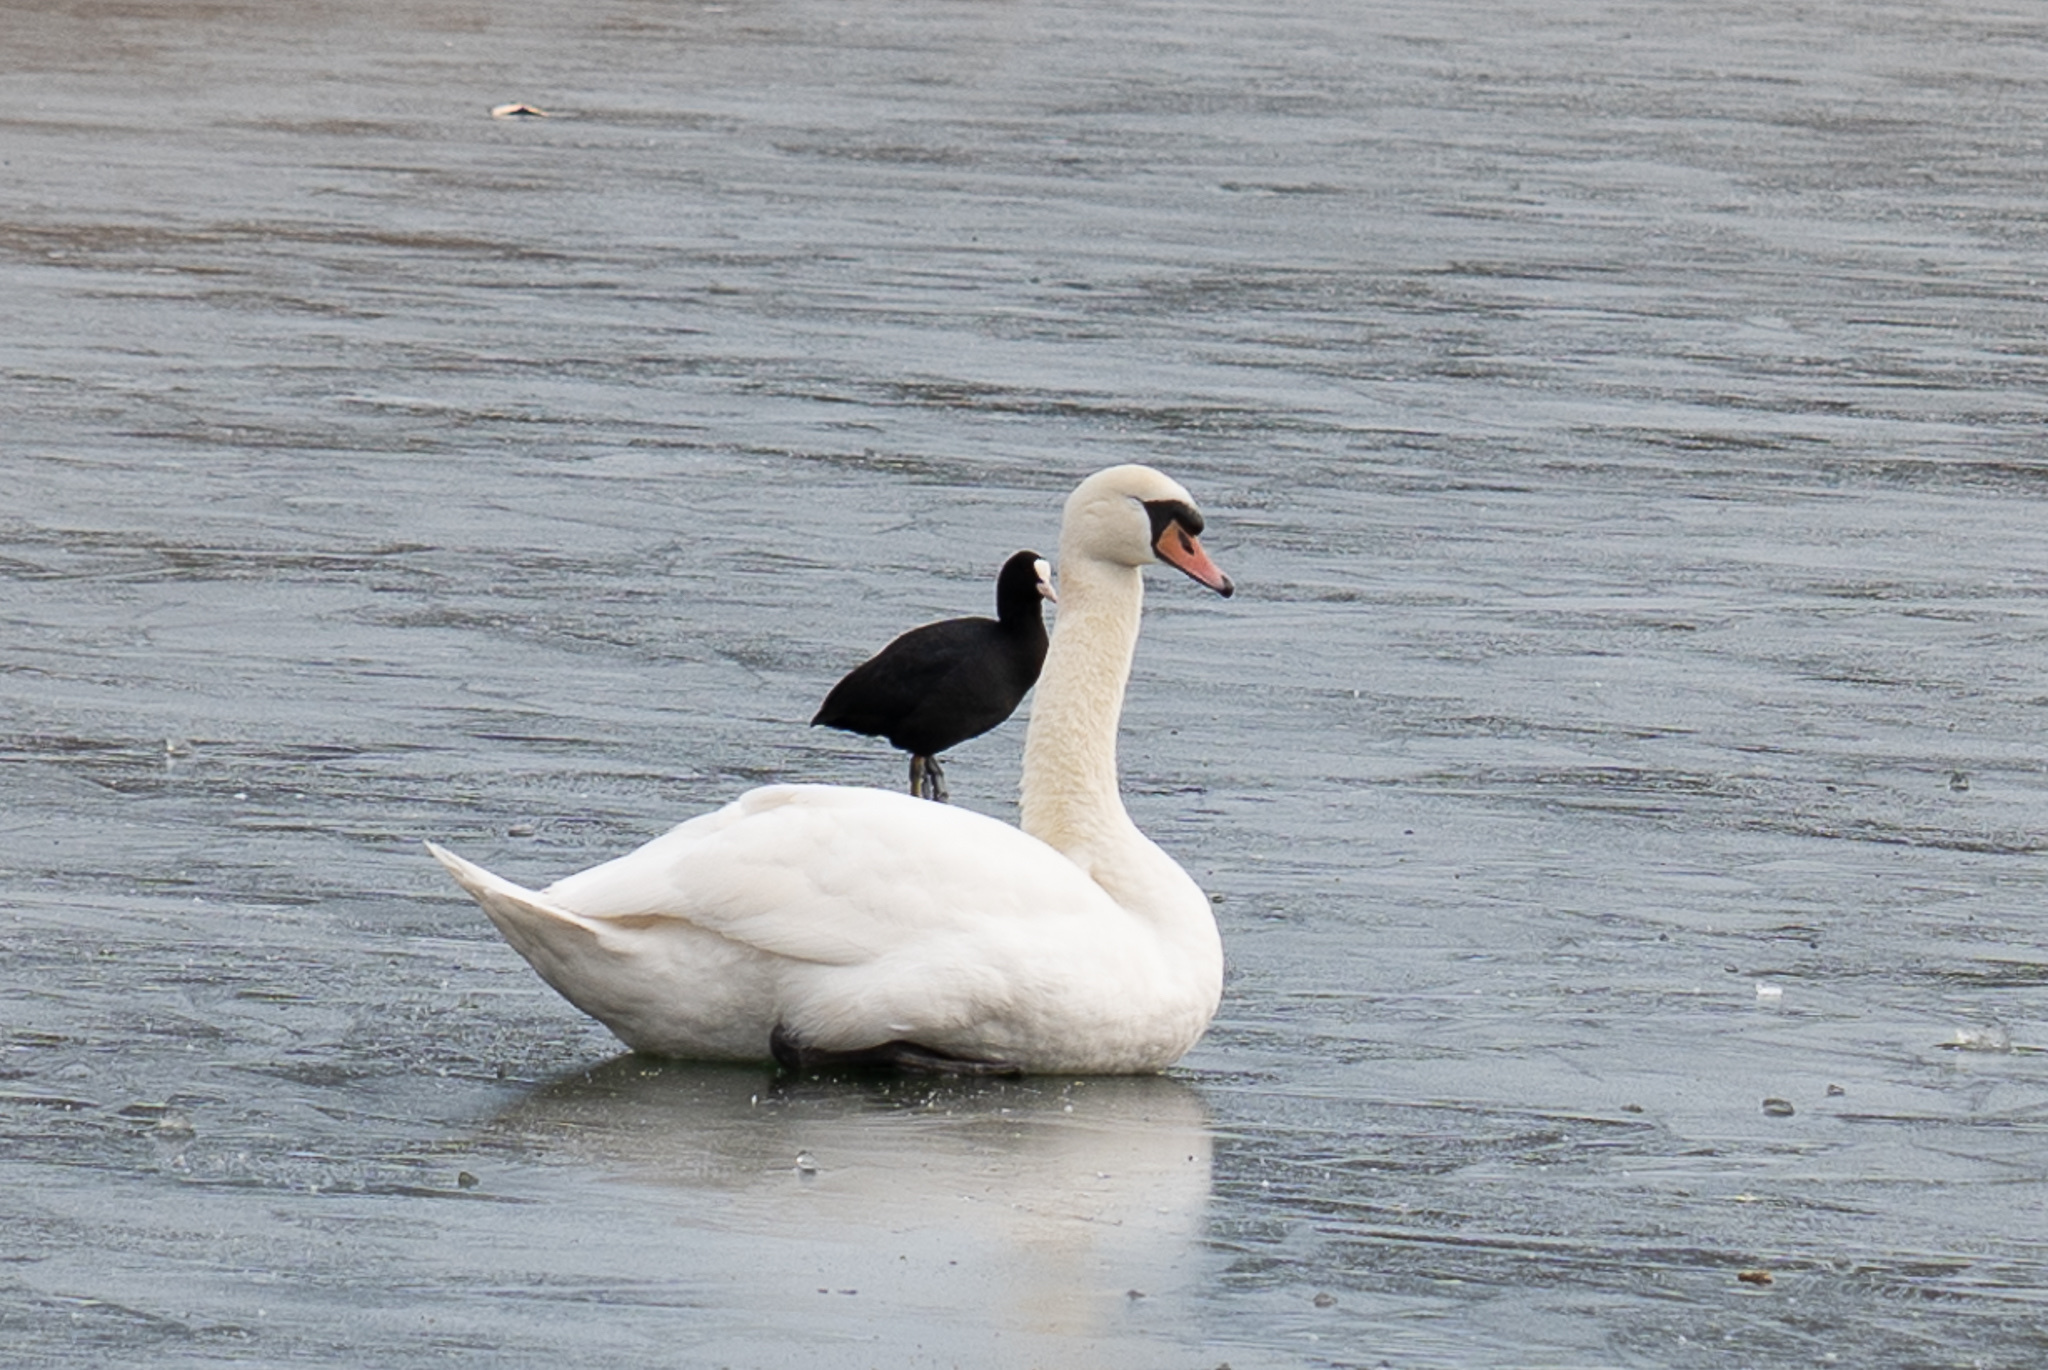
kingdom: Animalia
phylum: Chordata
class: Aves
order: Anseriformes
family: Anatidae
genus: Cygnus
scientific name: Cygnus olor
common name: Mute swan
